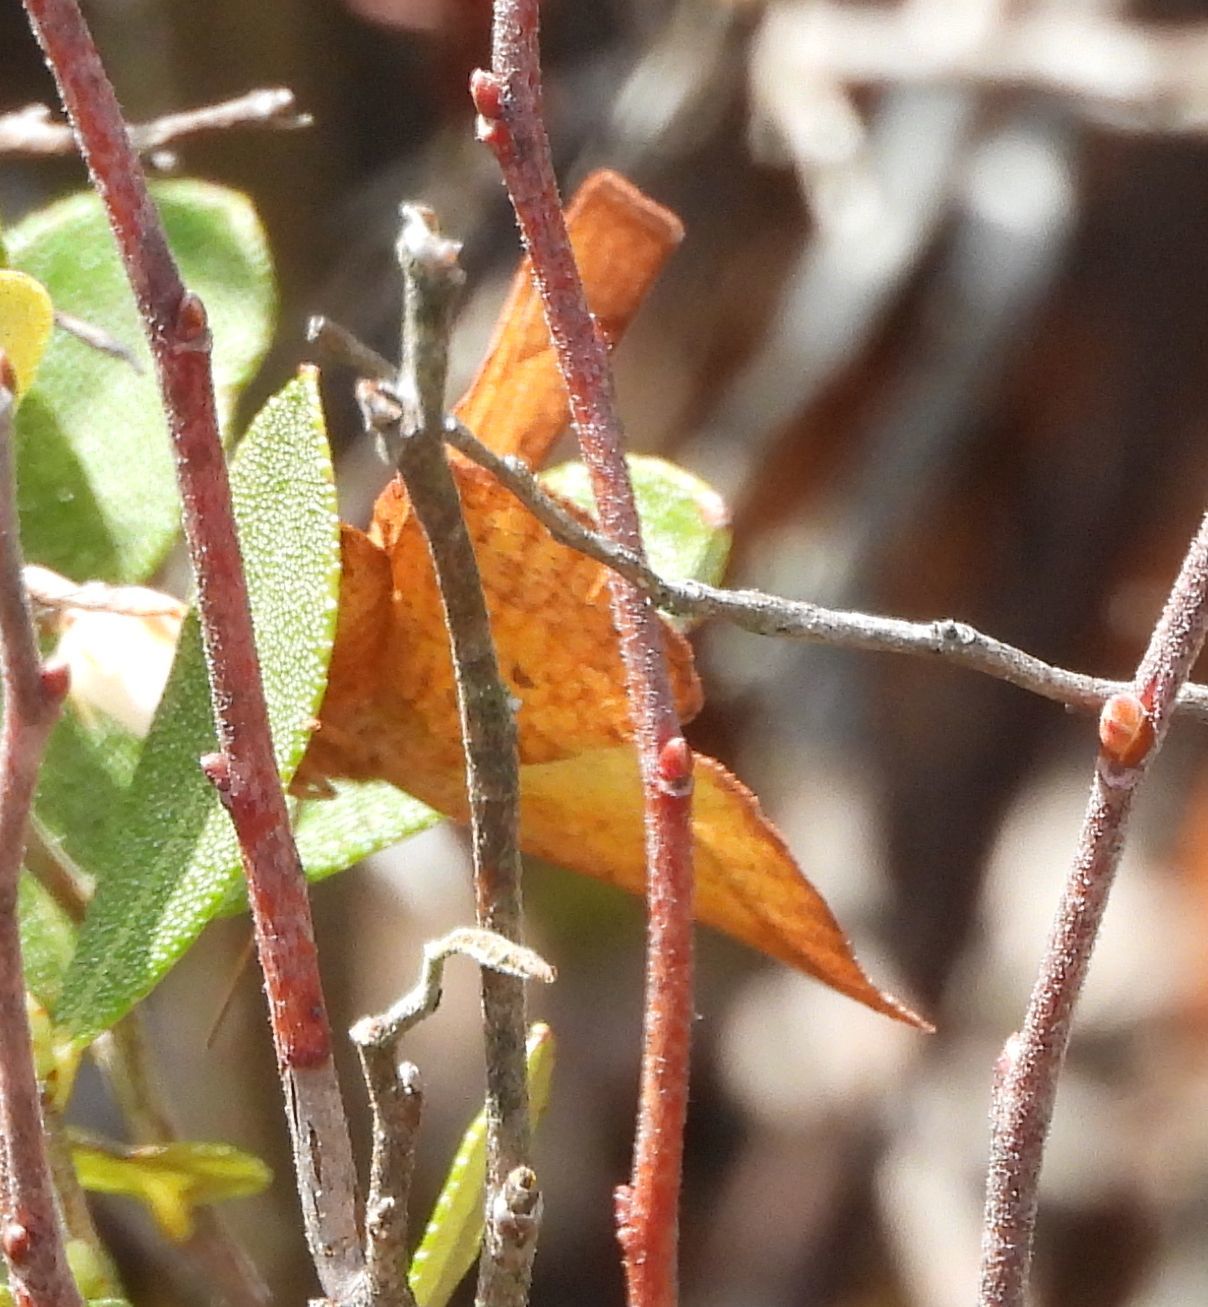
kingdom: Animalia
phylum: Arthropoda
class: Insecta
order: Lepidoptera
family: Geometridae
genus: Metarranthis
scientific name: Metarranthis obfirmaria
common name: Yellow-washed metarranthis
